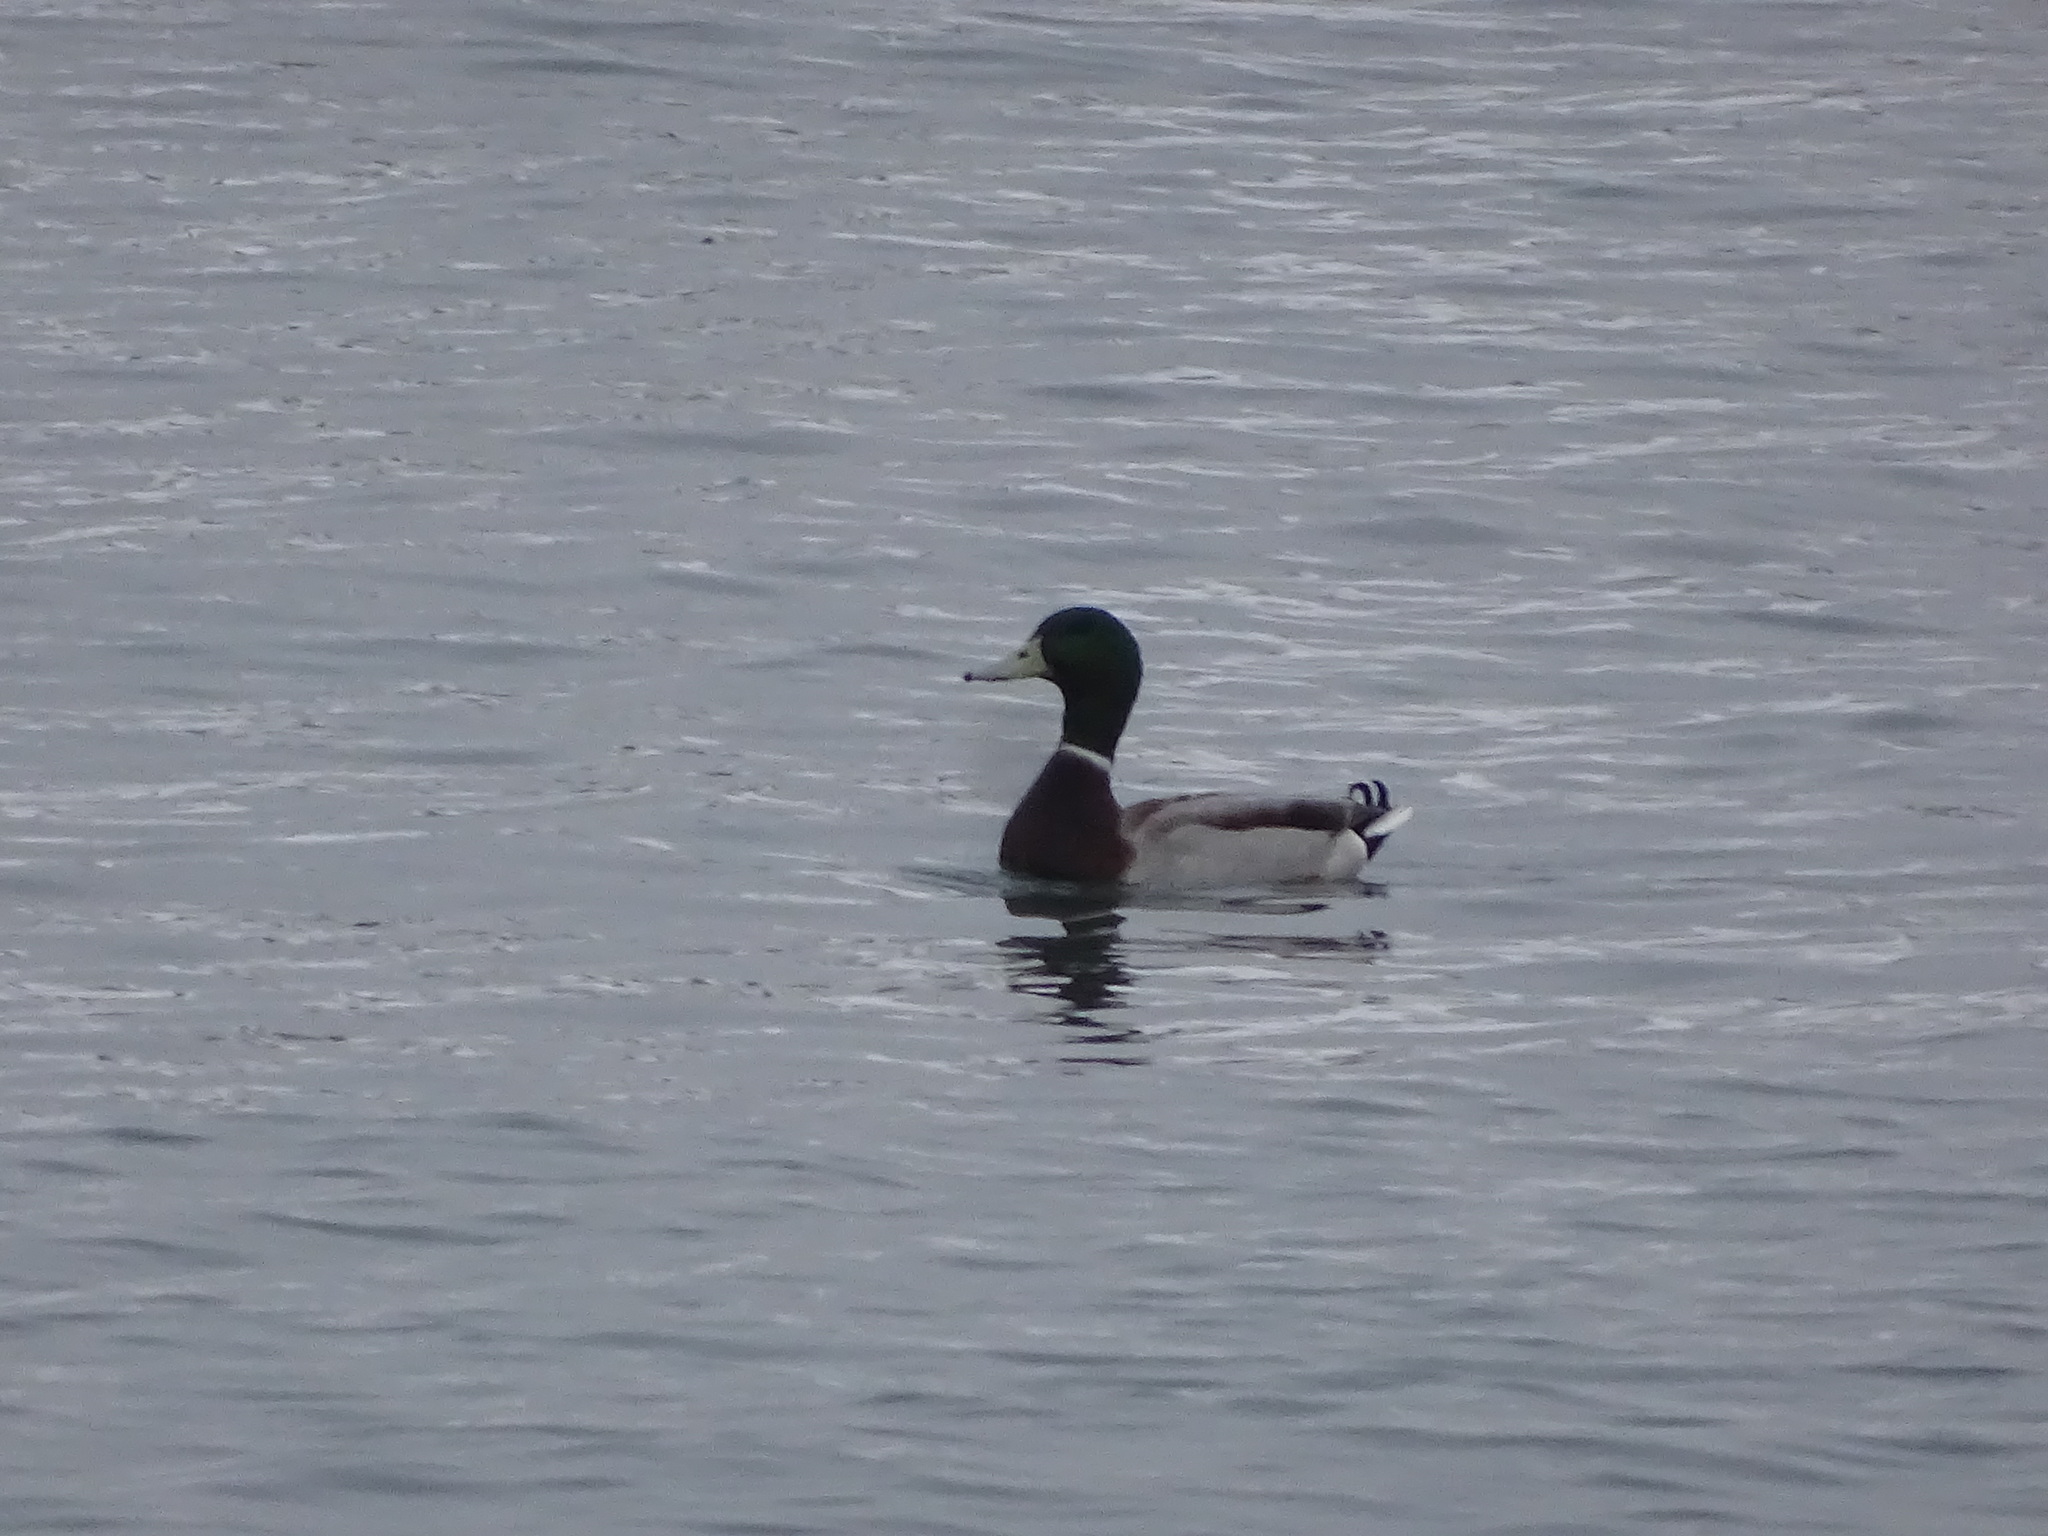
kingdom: Animalia
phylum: Chordata
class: Aves
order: Anseriformes
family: Anatidae
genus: Anas
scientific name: Anas platyrhynchos
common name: Mallard
